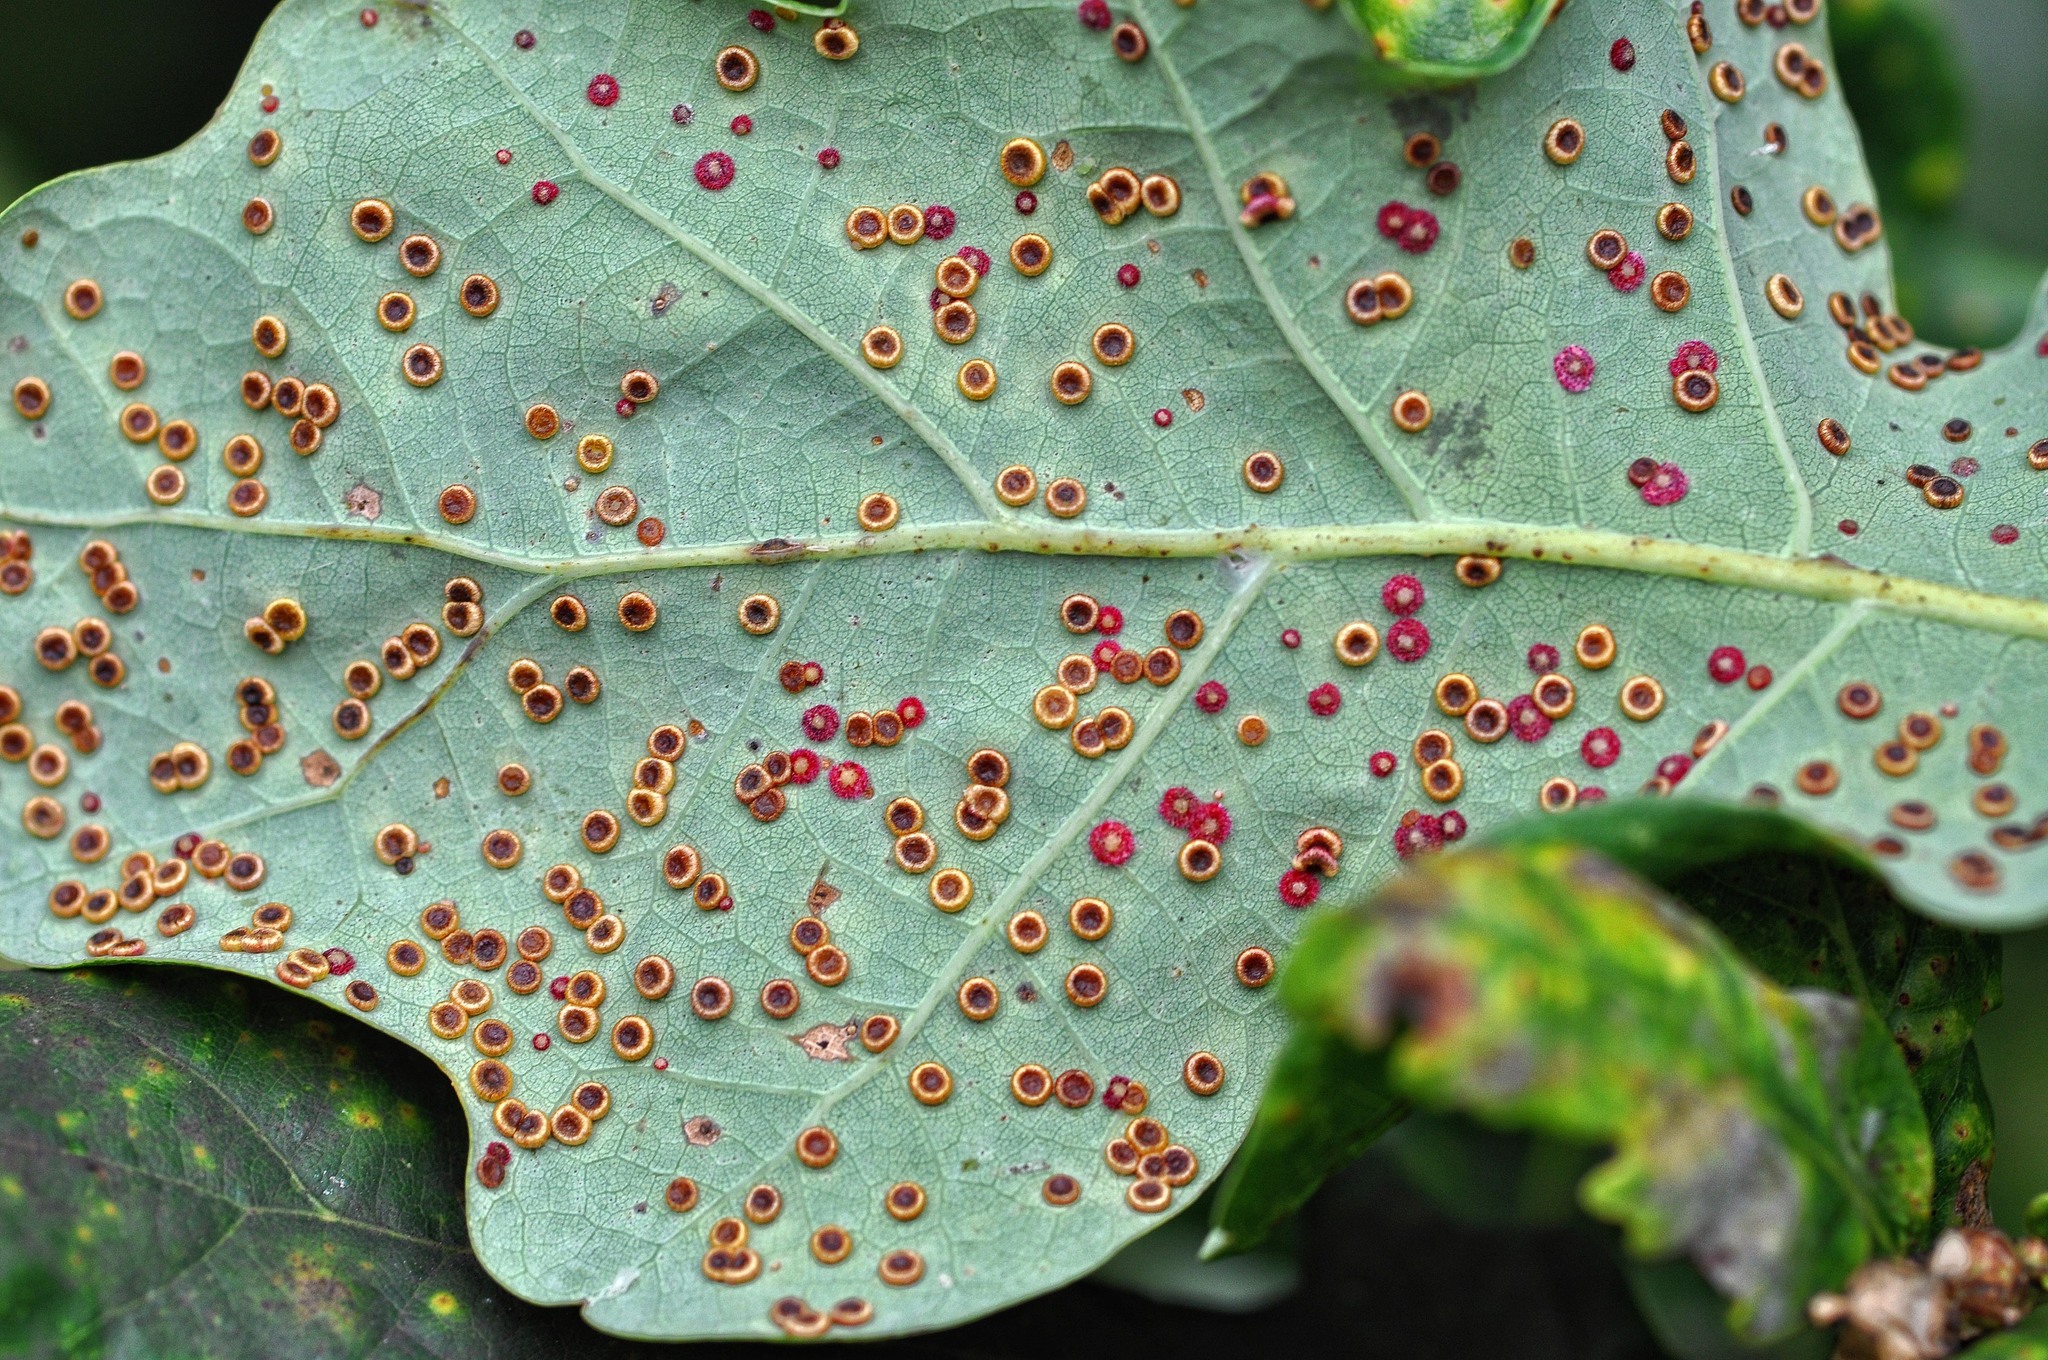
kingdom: Animalia
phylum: Arthropoda
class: Insecta
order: Hymenoptera
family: Cynipidae
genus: Neuroterus
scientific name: Neuroterus quercusbaccarum
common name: Common spangle gall
